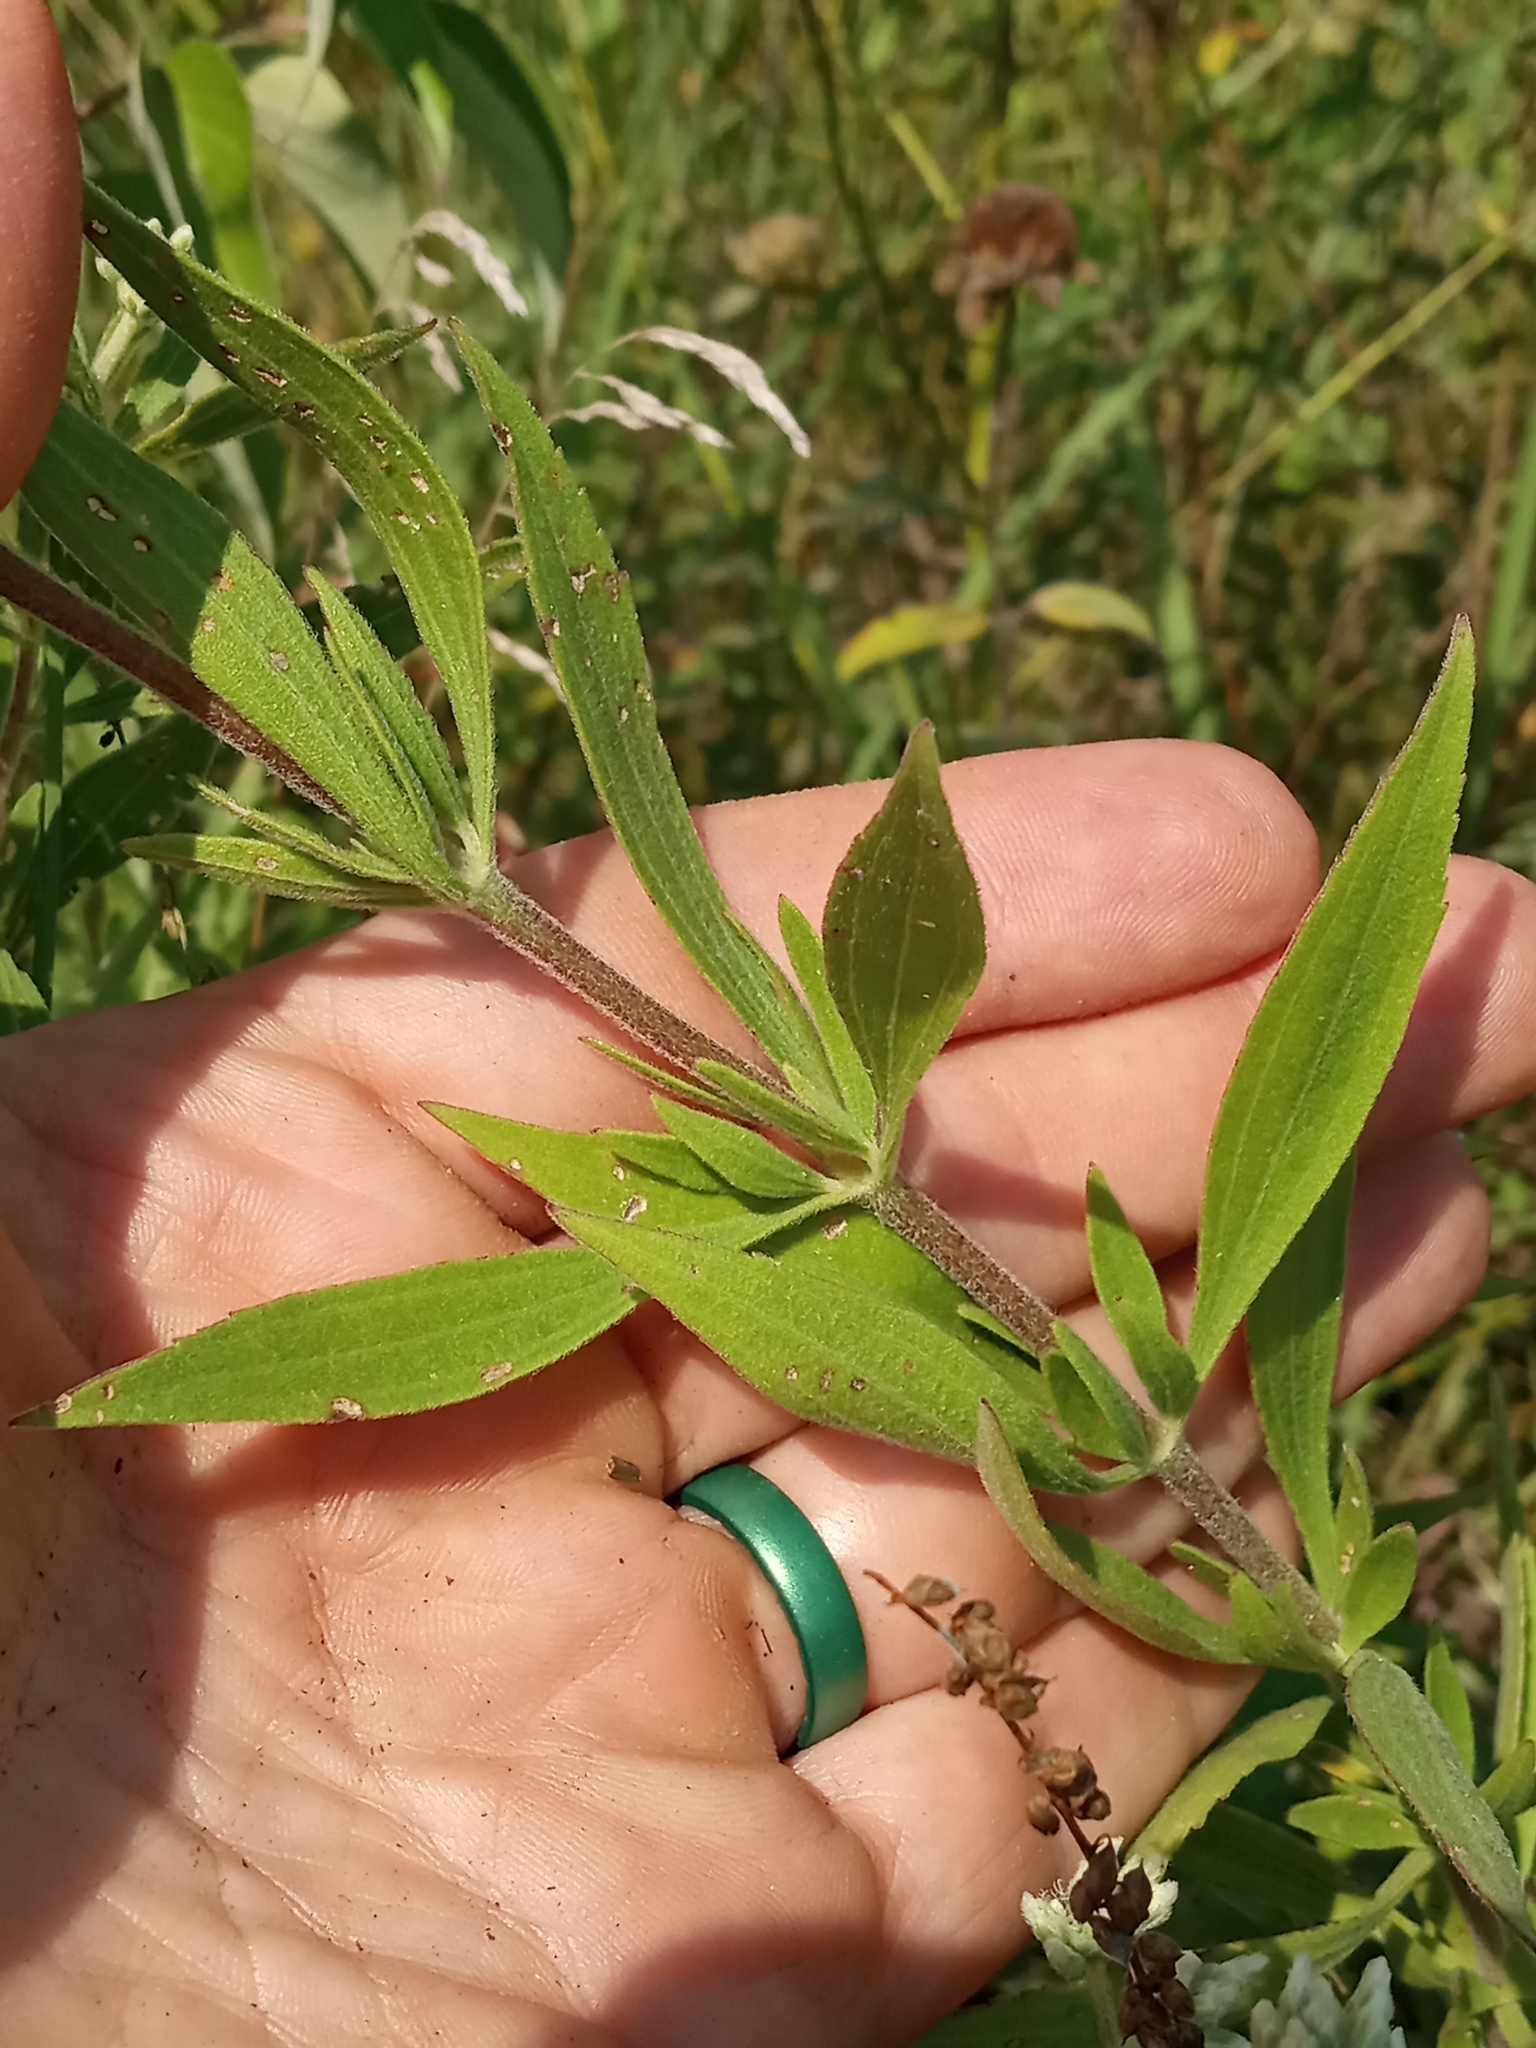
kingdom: Plantae
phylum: Tracheophyta
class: Magnoliopsida
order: Asterales
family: Asteraceae
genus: Eupatorium
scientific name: Eupatorium altissimum
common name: Tall thoroughwort
